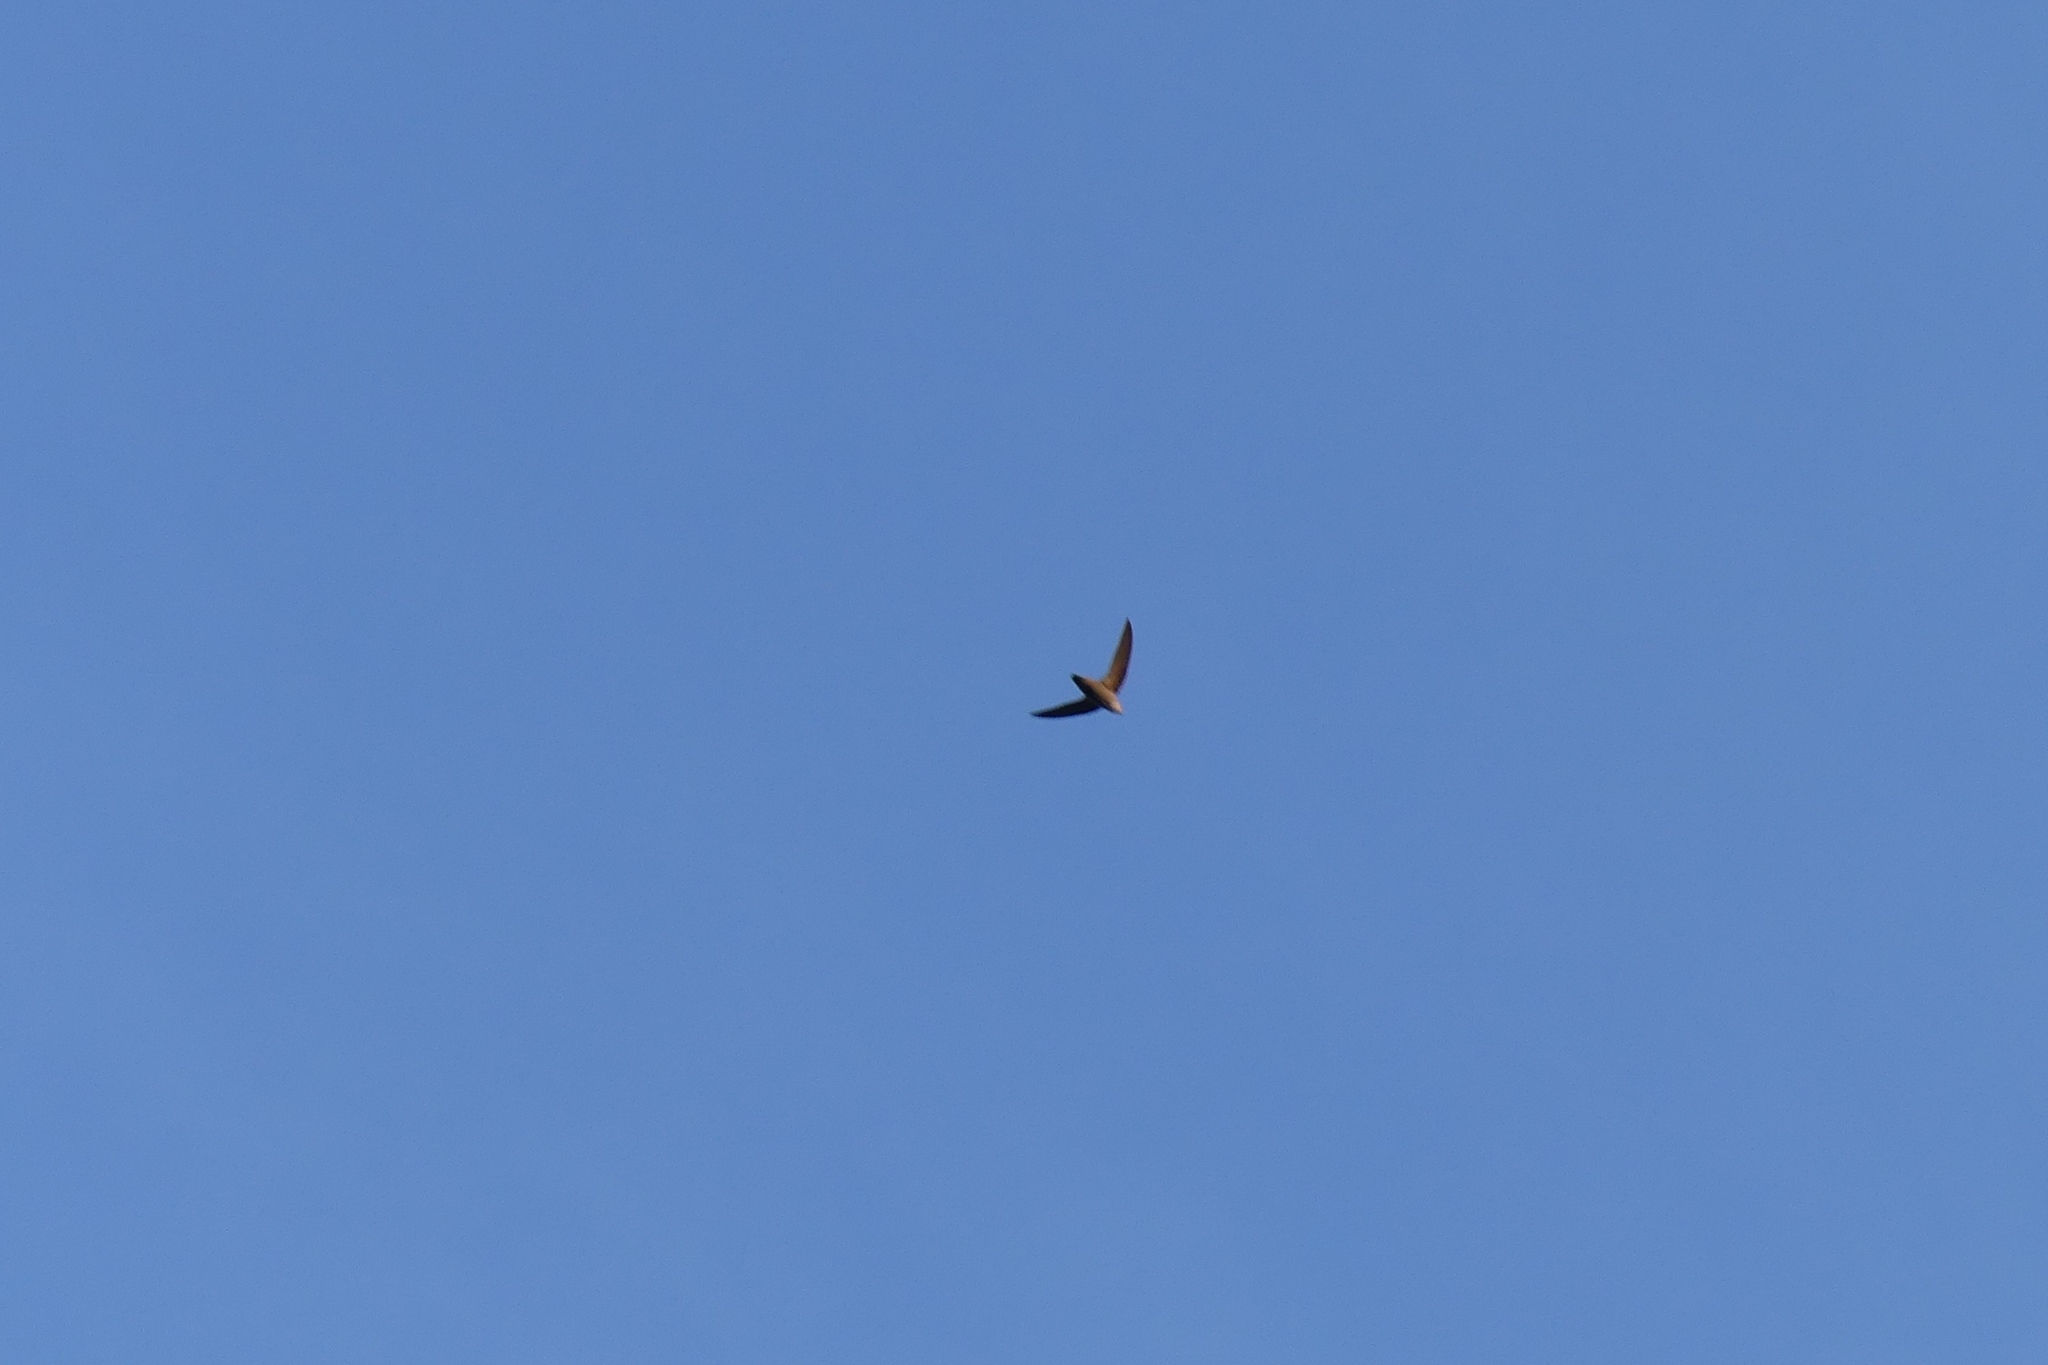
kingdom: Animalia
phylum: Chordata
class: Aves
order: Apodiformes
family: Apodidae
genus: Chaetura
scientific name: Chaetura pelagica
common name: Chimney swift
